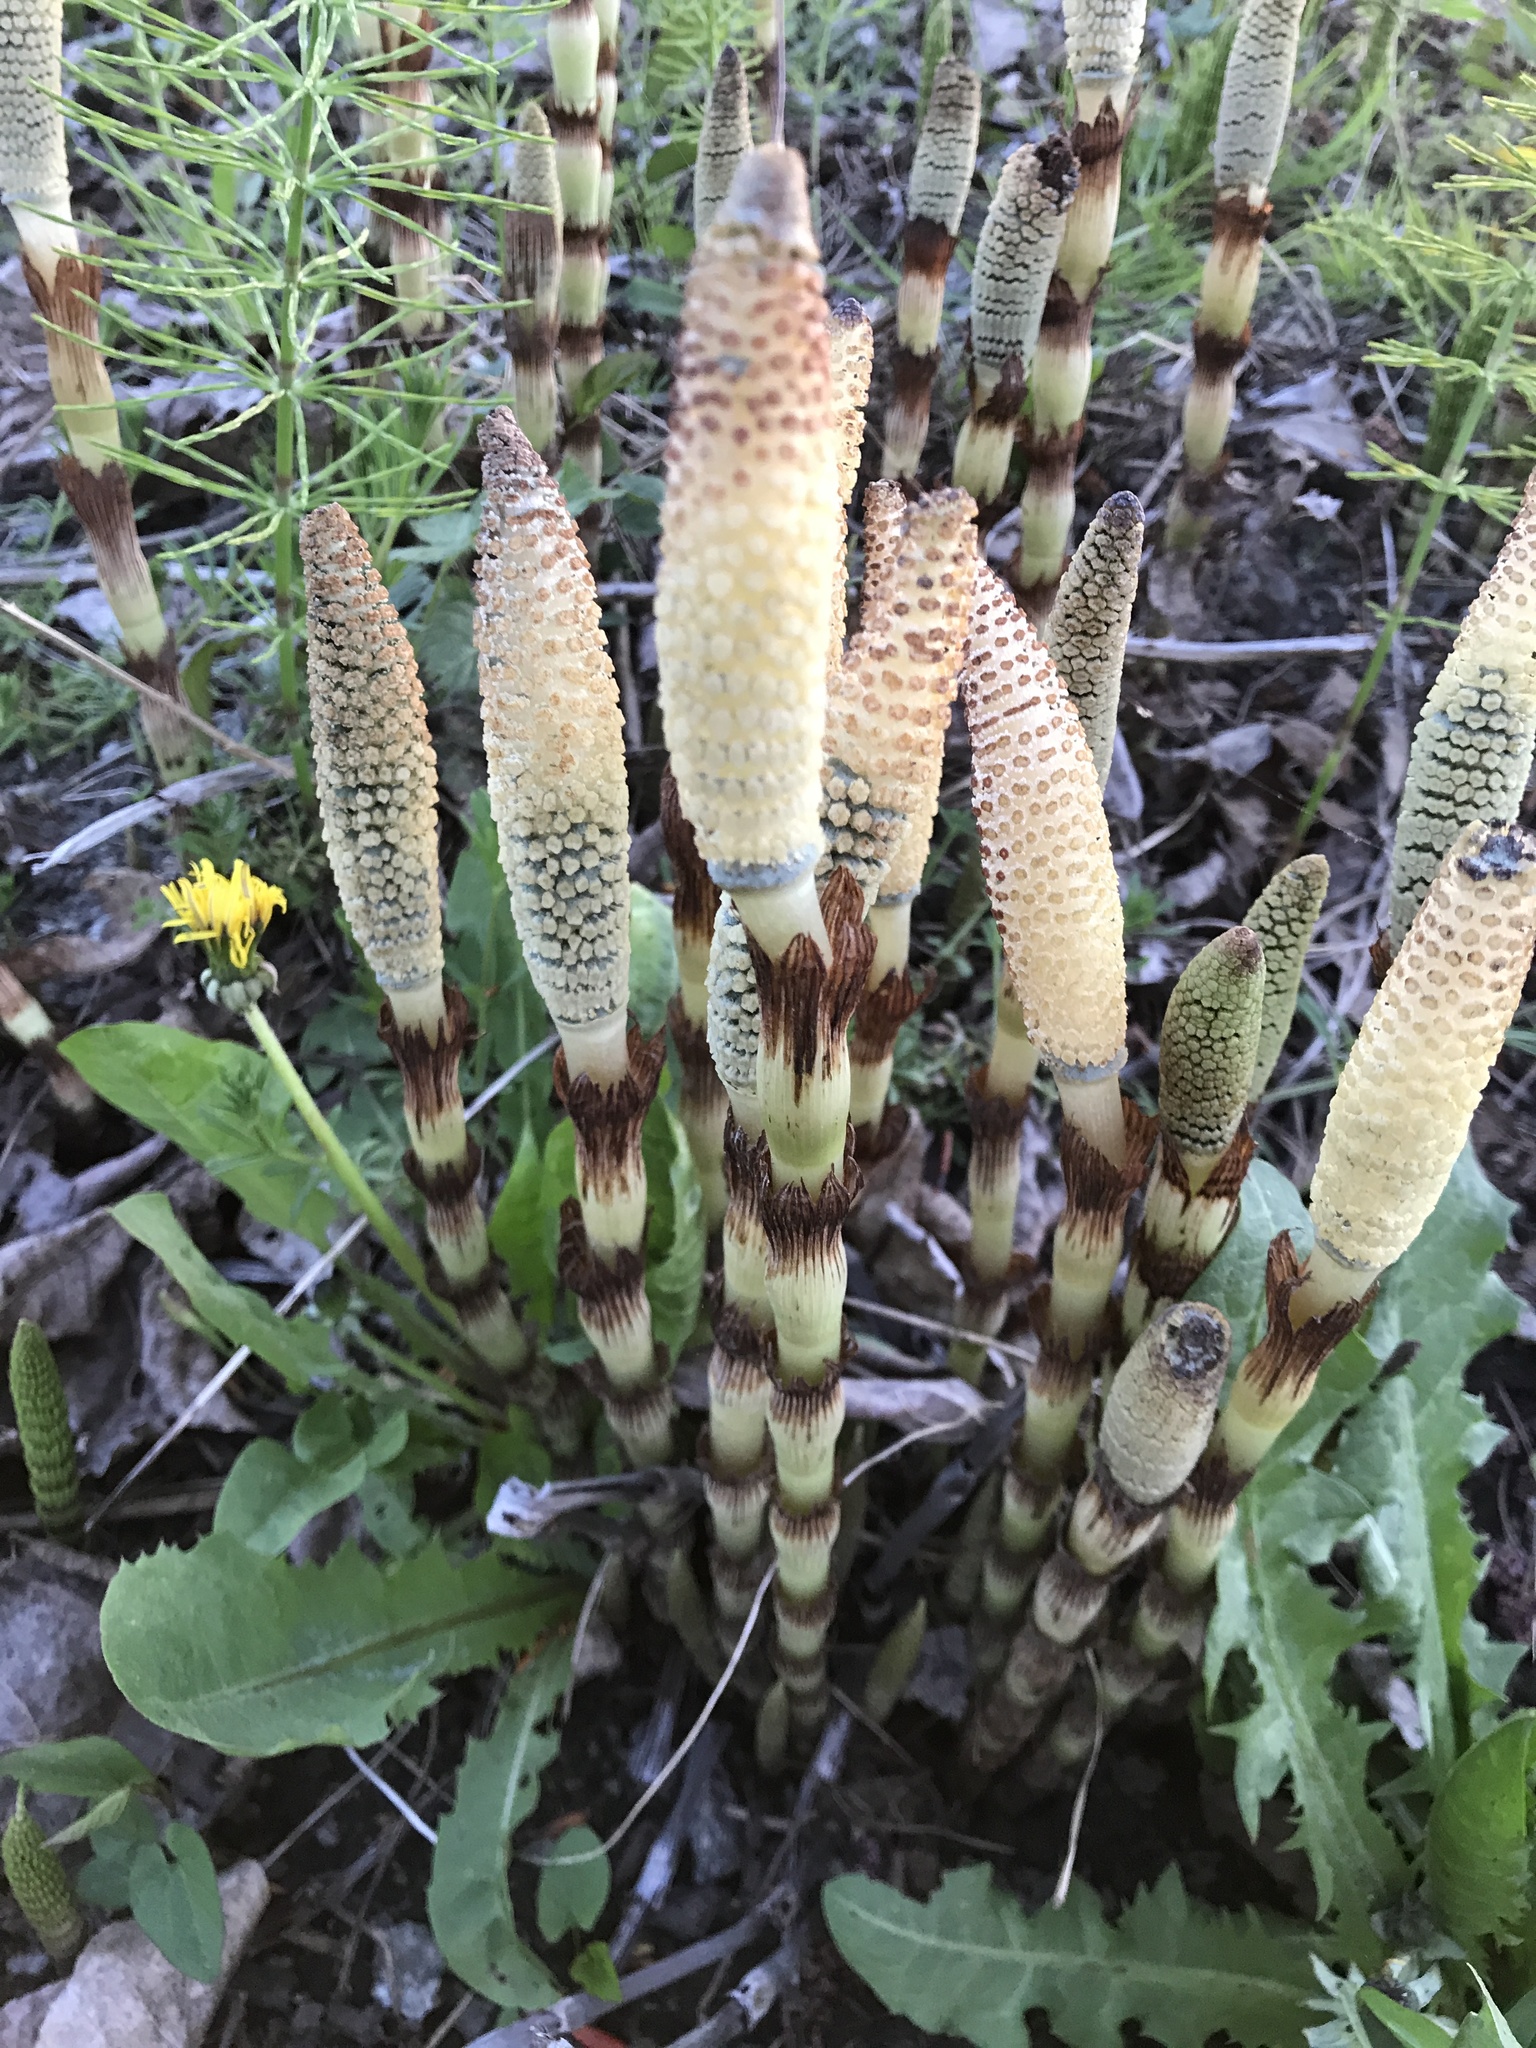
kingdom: Plantae
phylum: Tracheophyta
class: Polypodiopsida
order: Equisetales
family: Equisetaceae
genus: Equisetum
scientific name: Equisetum telmateia
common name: Great horsetail
